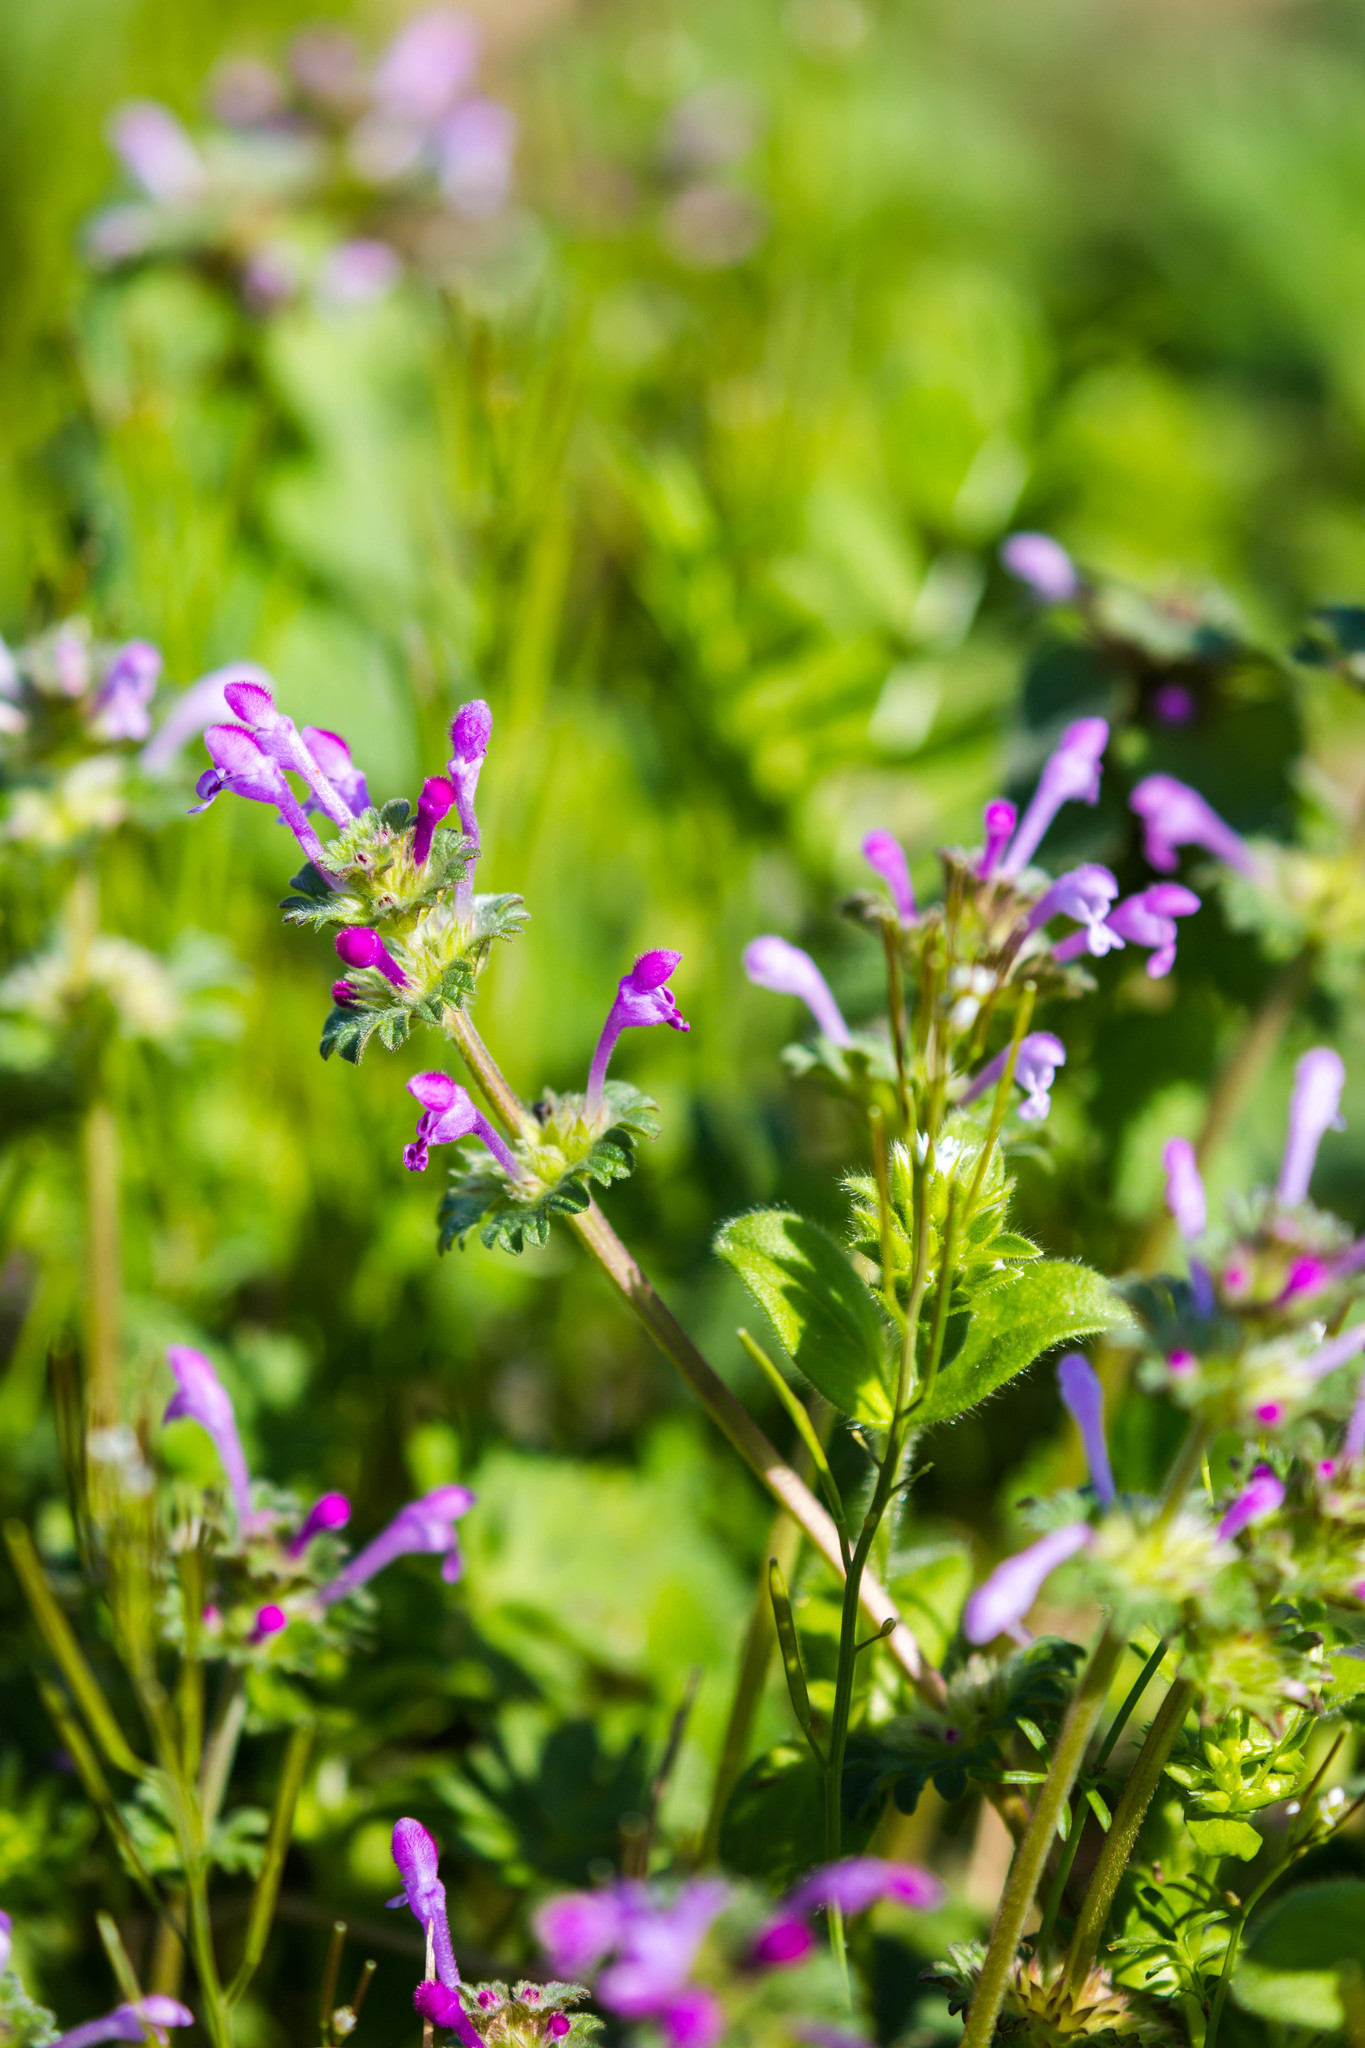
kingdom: Plantae
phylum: Tracheophyta
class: Magnoliopsida
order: Lamiales
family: Lamiaceae
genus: Lamium
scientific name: Lamium amplexicaule
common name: Henbit dead-nettle
